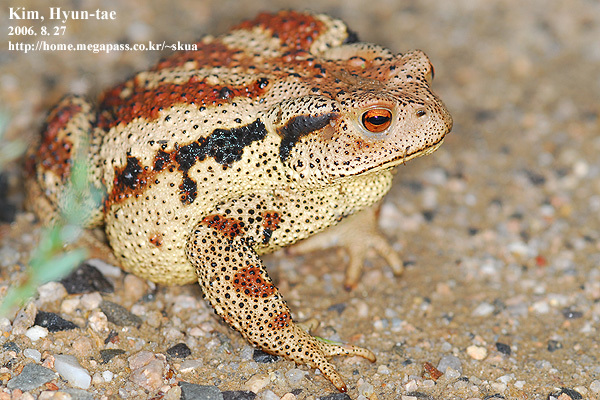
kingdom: Animalia
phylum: Chordata
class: Amphibia
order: Anura
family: Bufonidae
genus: Bufo
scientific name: Bufo gargarizans
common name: Asiatic toad
